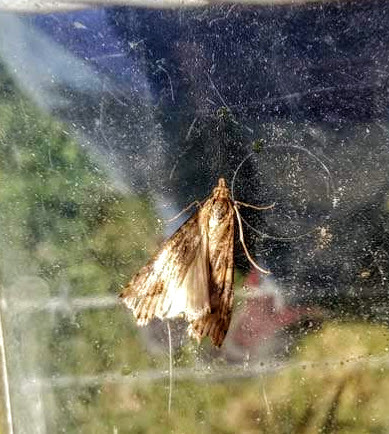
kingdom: Animalia
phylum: Arthropoda
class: Insecta
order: Lepidoptera
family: Crambidae
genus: Nomophila
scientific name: Nomophila
